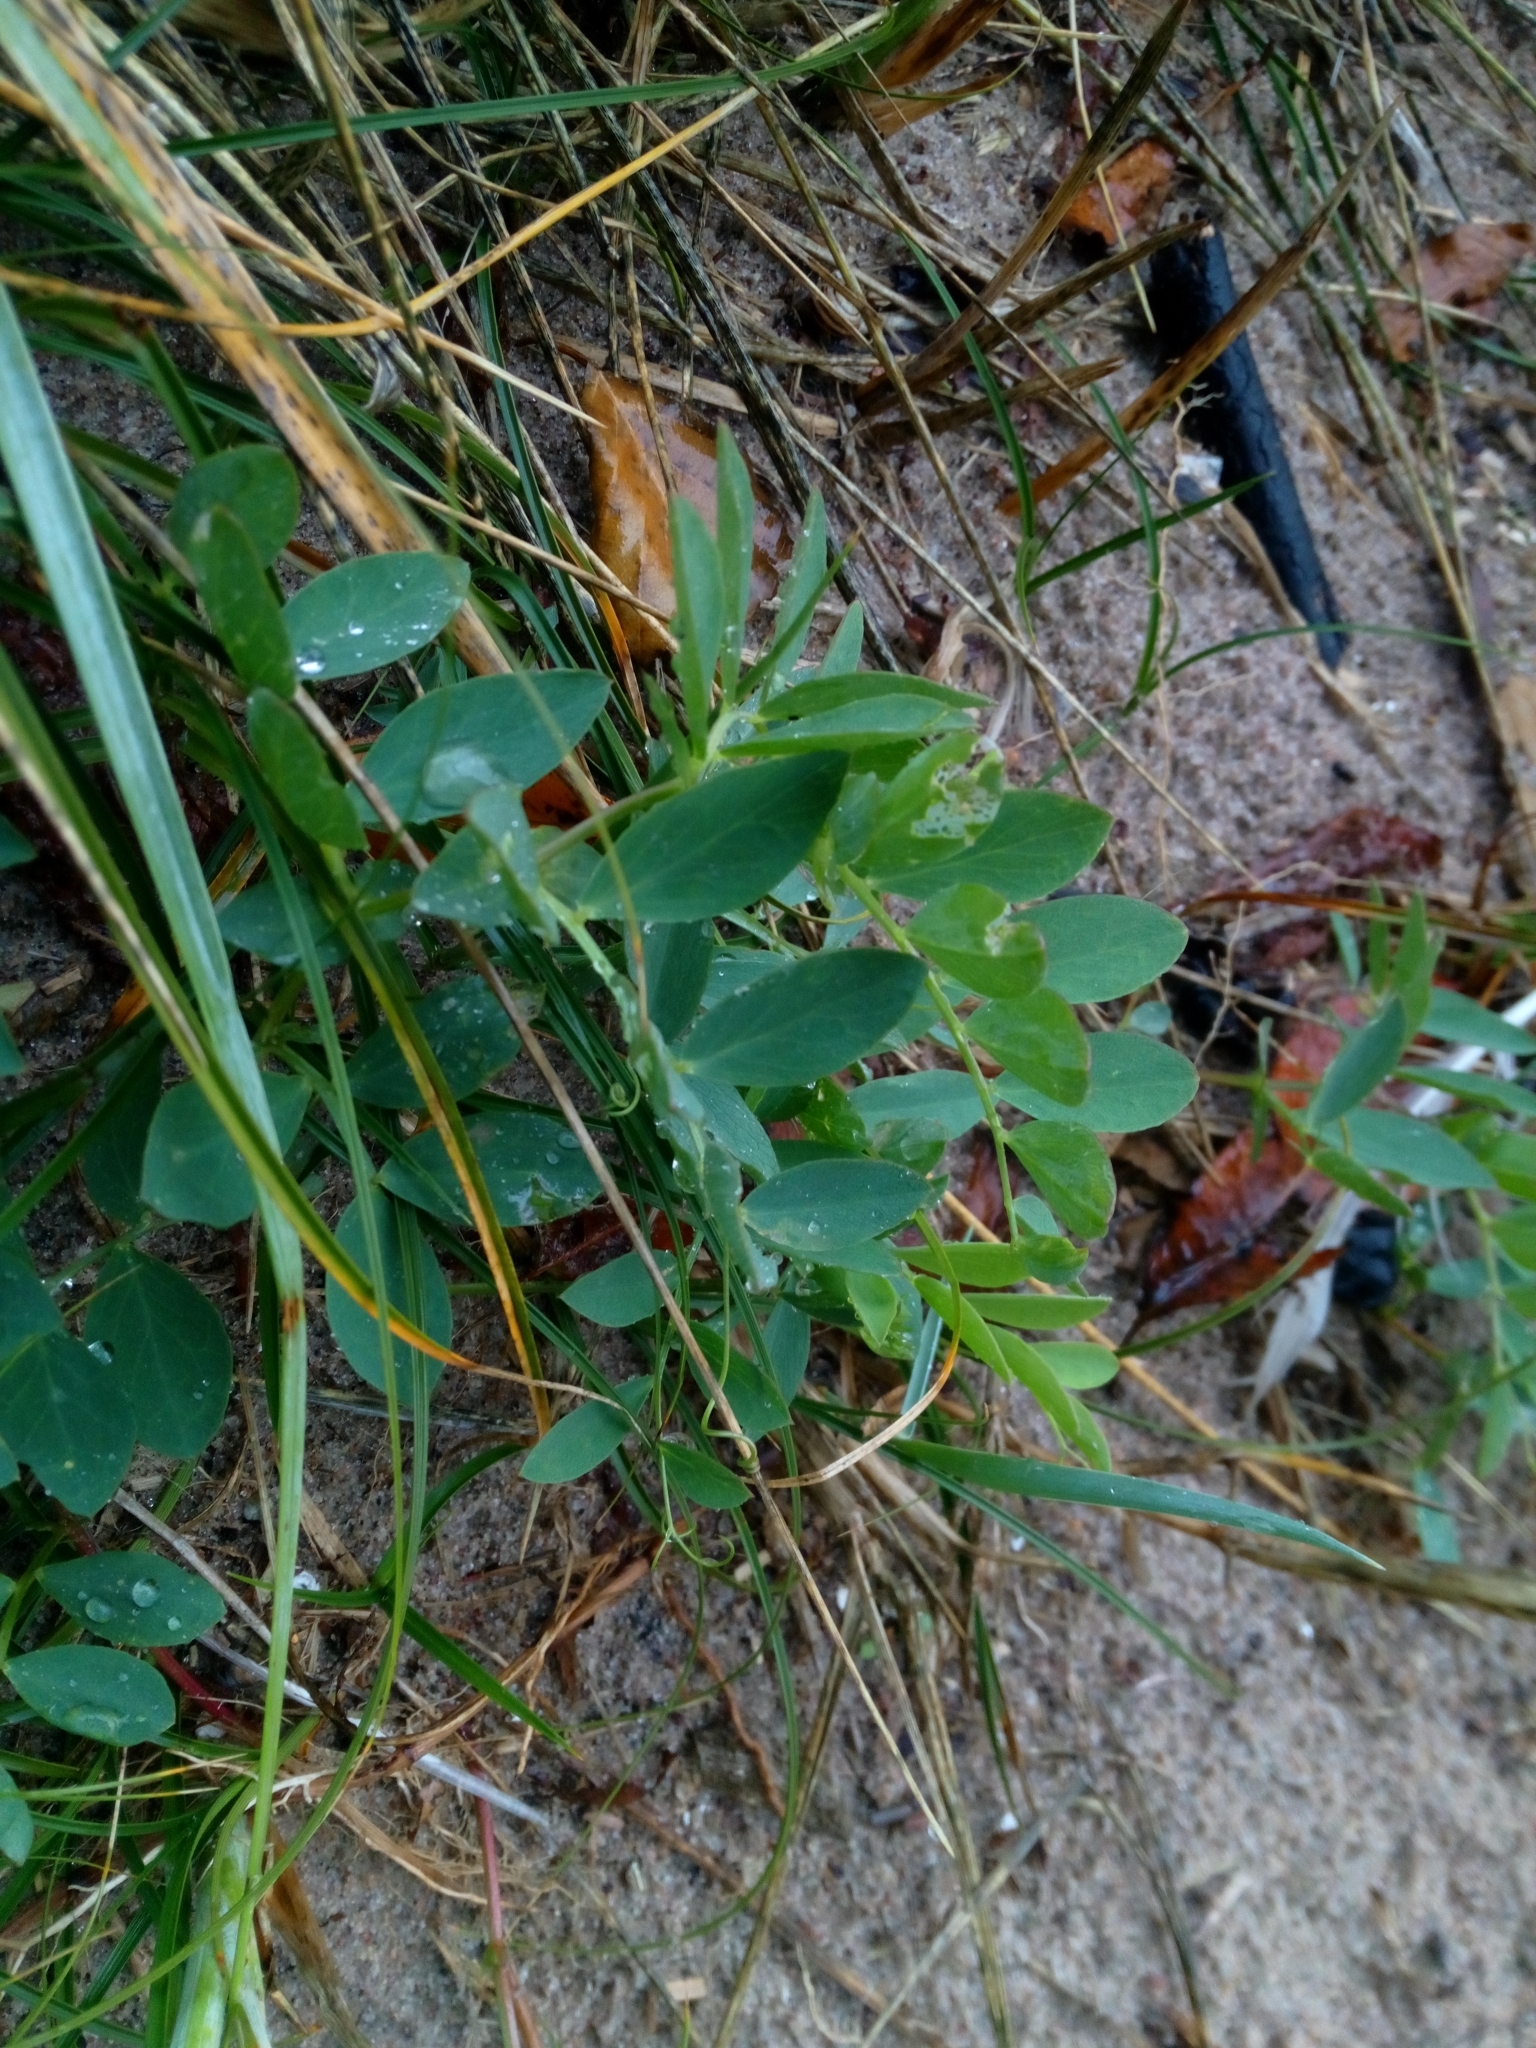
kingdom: Plantae
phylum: Tracheophyta
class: Magnoliopsida
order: Fabales
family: Fabaceae
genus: Lathyrus
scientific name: Lathyrus japonicus
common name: Sea pea
